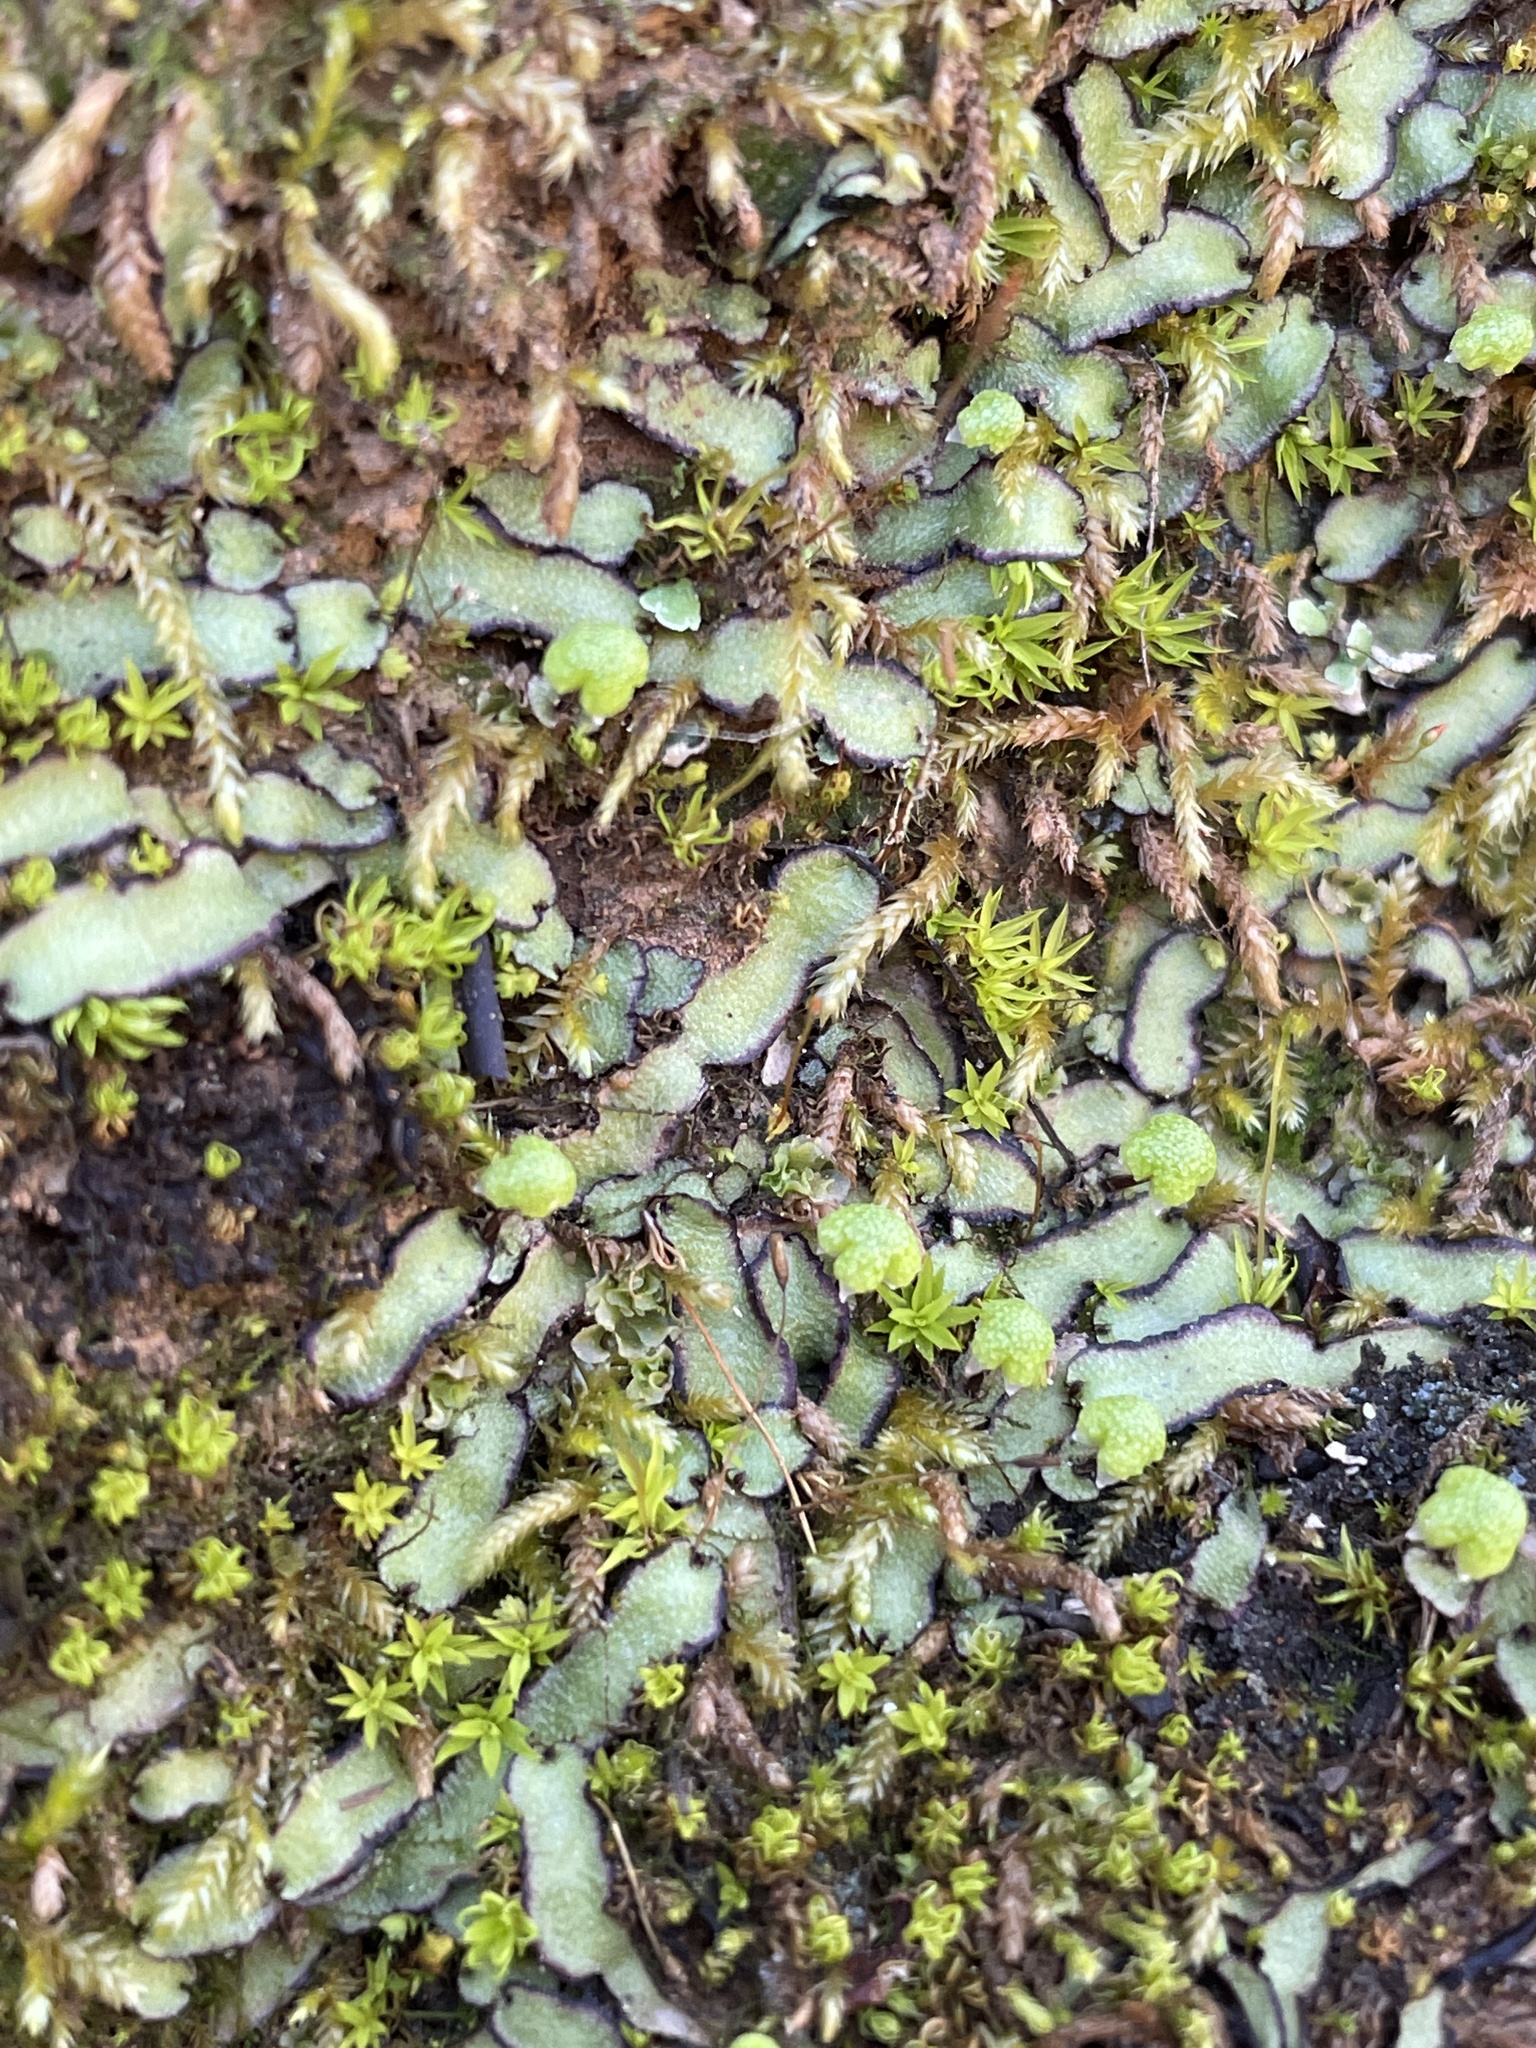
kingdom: Plantae
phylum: Marchantiophyta
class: Marchantiopsida
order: Marchantiales
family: Aytoniaceae
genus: Asterella
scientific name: Asterella bolanderi
